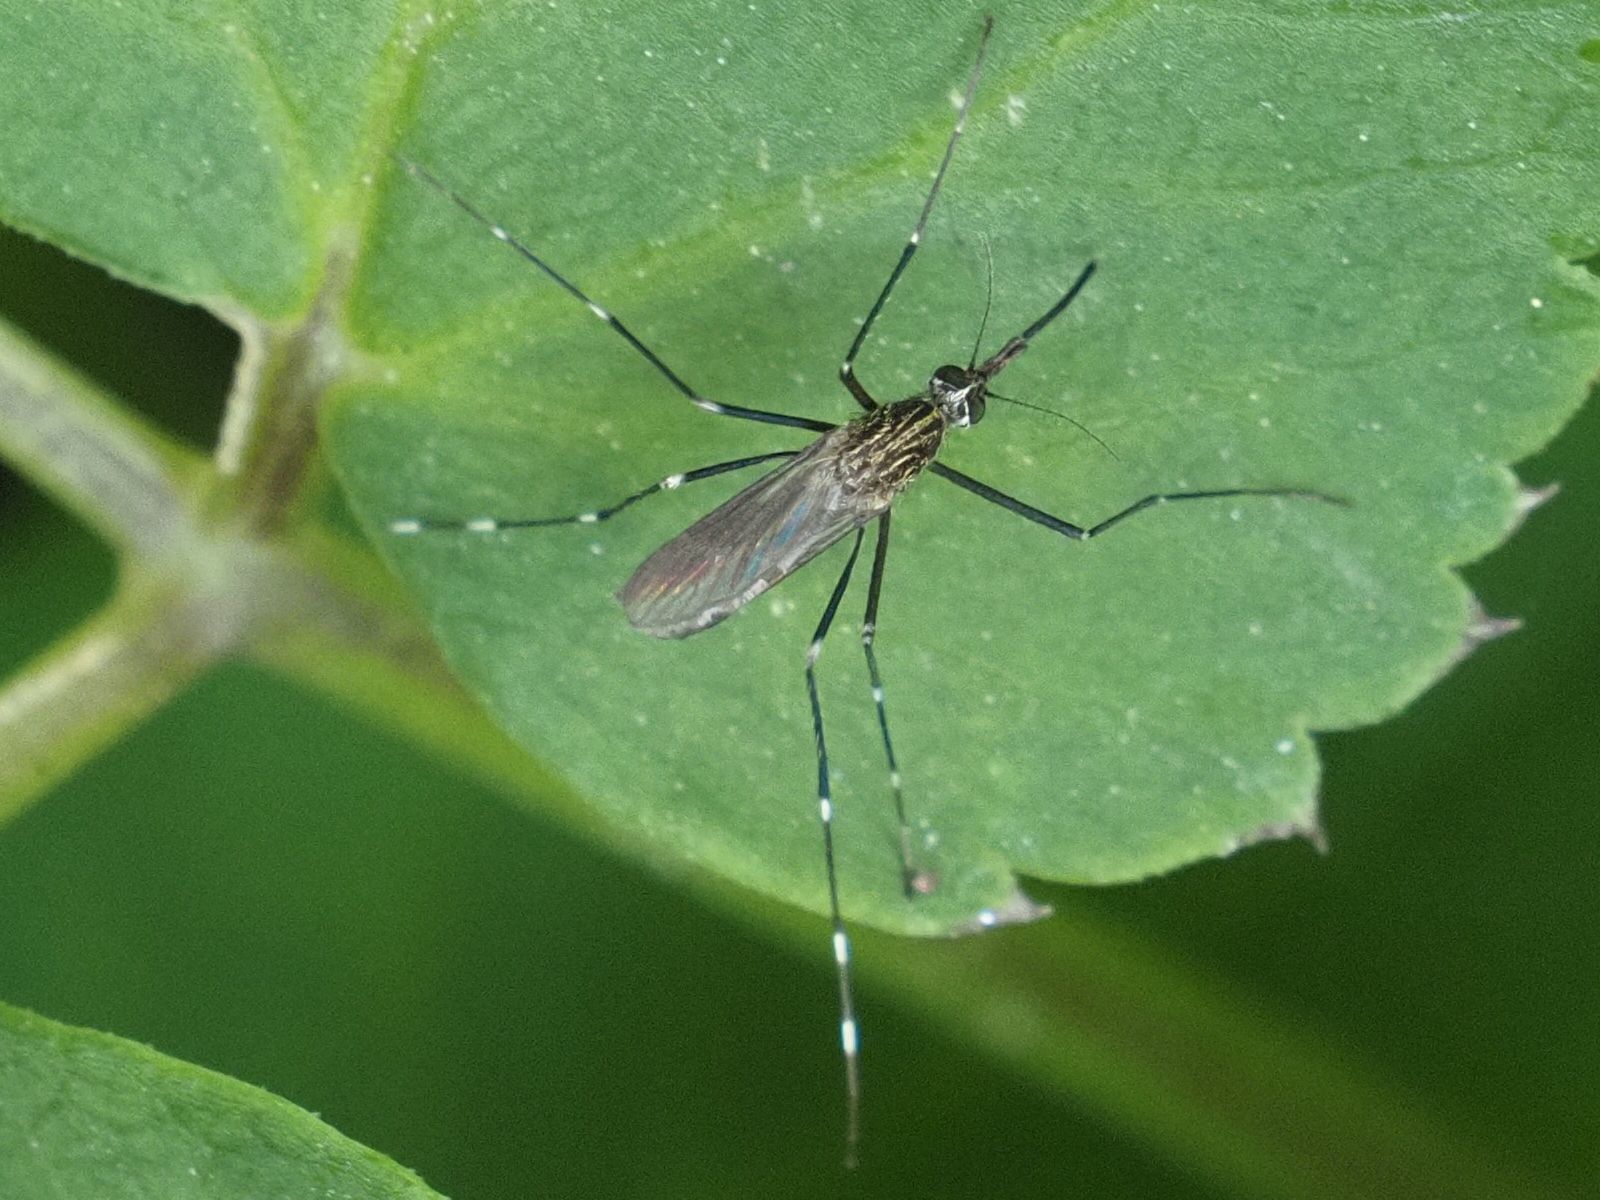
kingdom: Animalia
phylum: Arthropoda
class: Insecta
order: Diptera
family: Culicidae
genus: Aedes
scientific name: Aedes japonicus
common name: Asian bush mosquito
